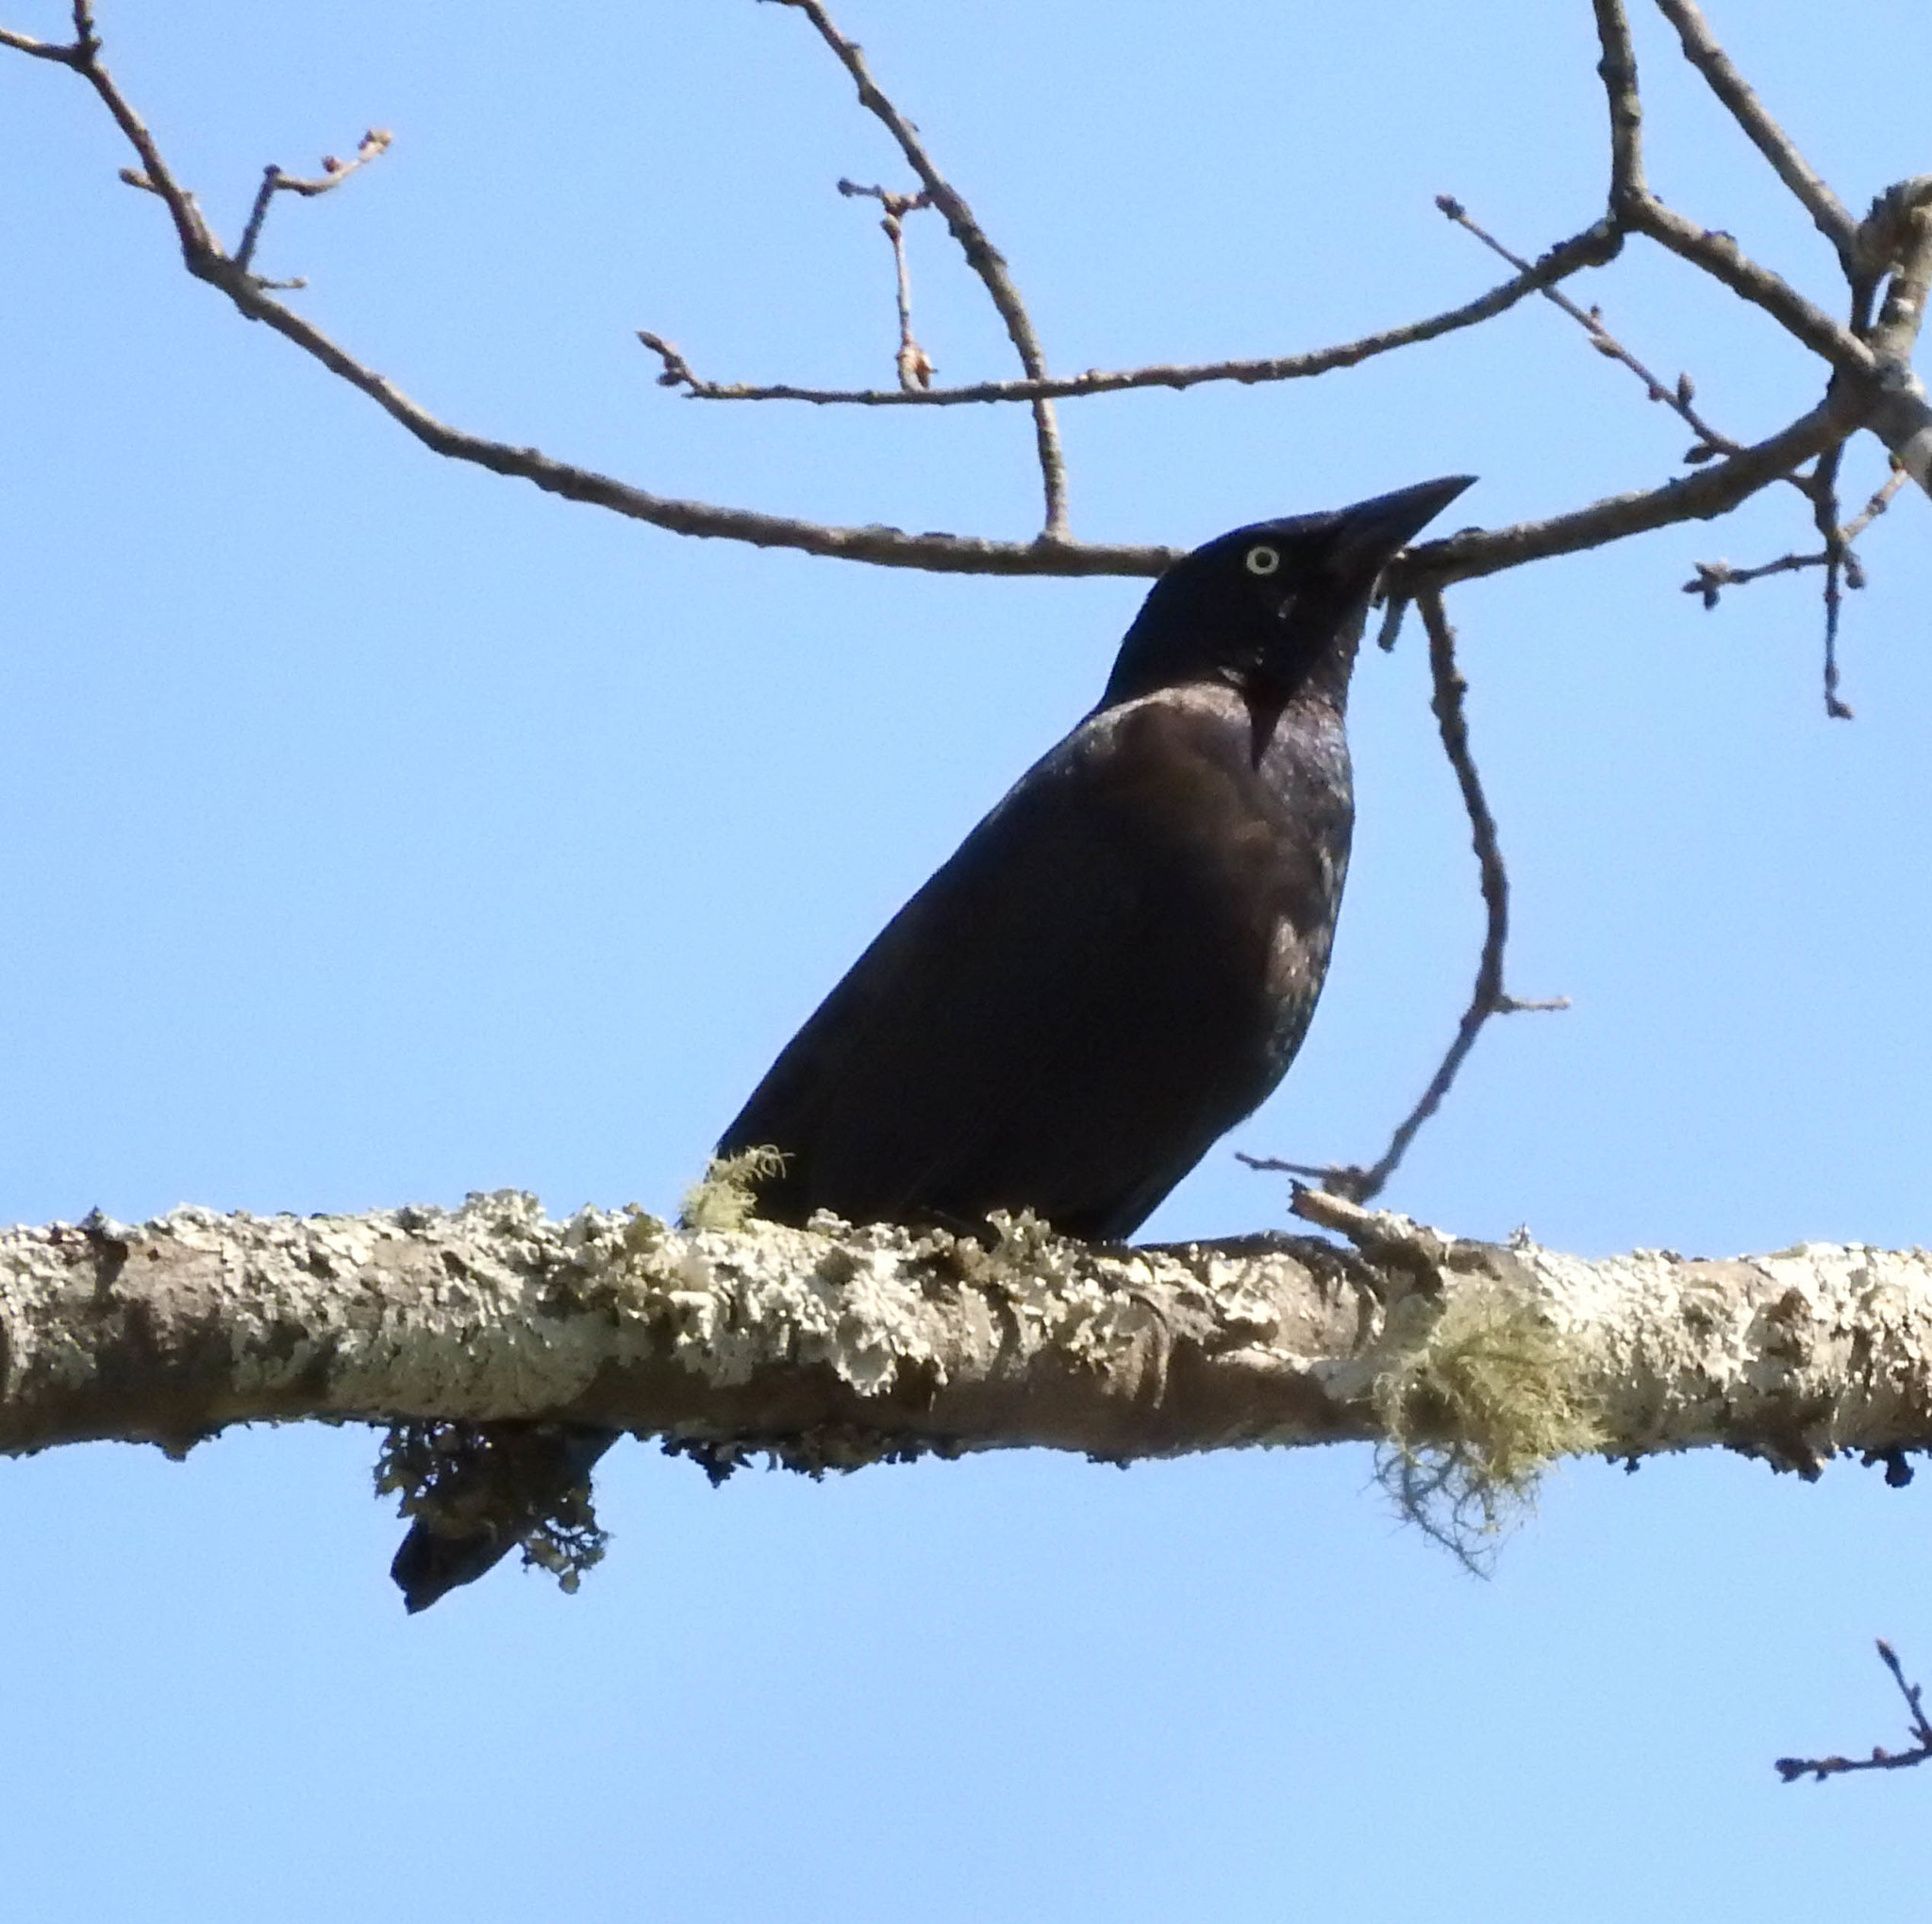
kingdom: Animalia
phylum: Chordata
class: Aves
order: Passeriformes
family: Icteridae
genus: Quiscalus
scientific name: Quiscalus quiscula
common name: Common grackle
